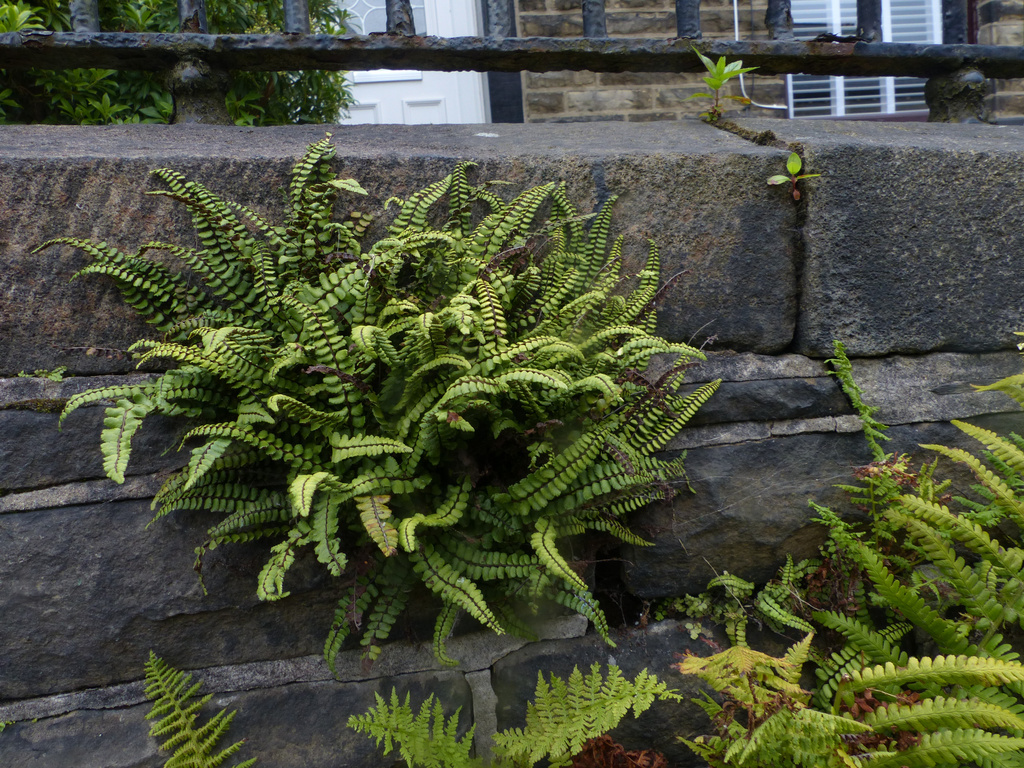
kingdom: Plantae
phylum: Tracheophyta
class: Polypodiopsida
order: Polypodiales
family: Aspleniaceae
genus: Asplenium
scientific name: Asplenium trichomanes
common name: Maidenhair spleenwort
